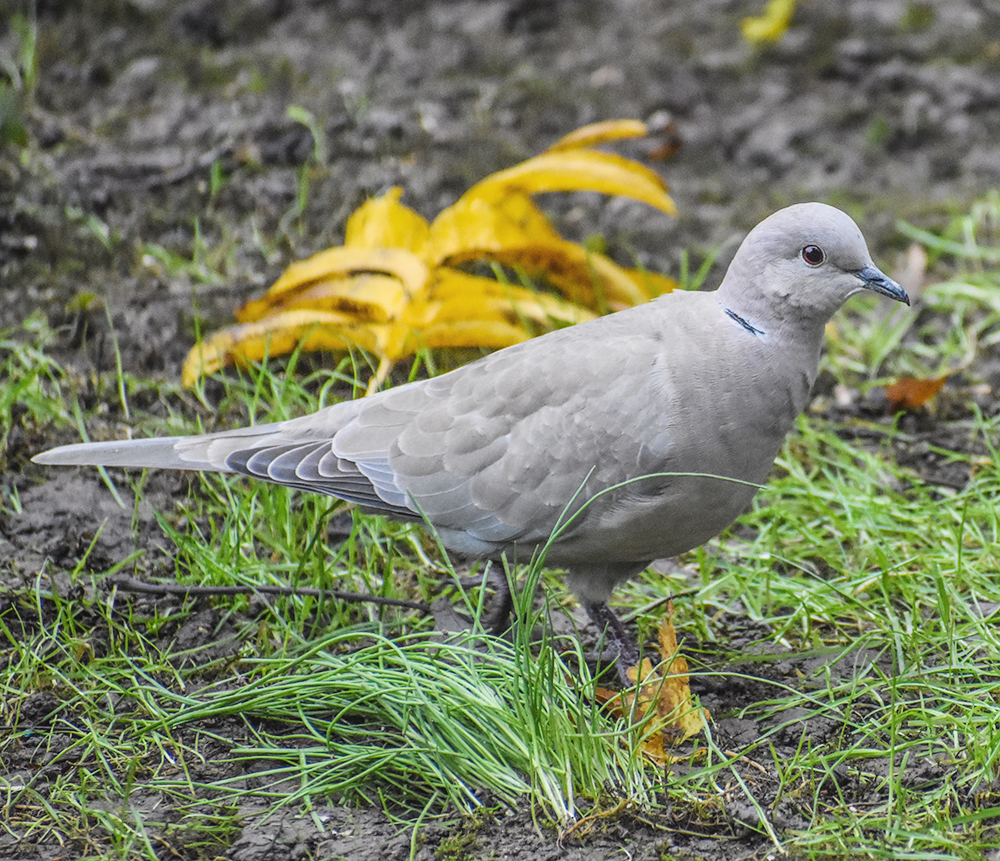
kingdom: Animalia
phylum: Chordata
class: Aves
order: Columbiformes
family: Columbidae
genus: Streptopelia
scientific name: Streptopelia decaocto
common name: Eurasian collared dove
